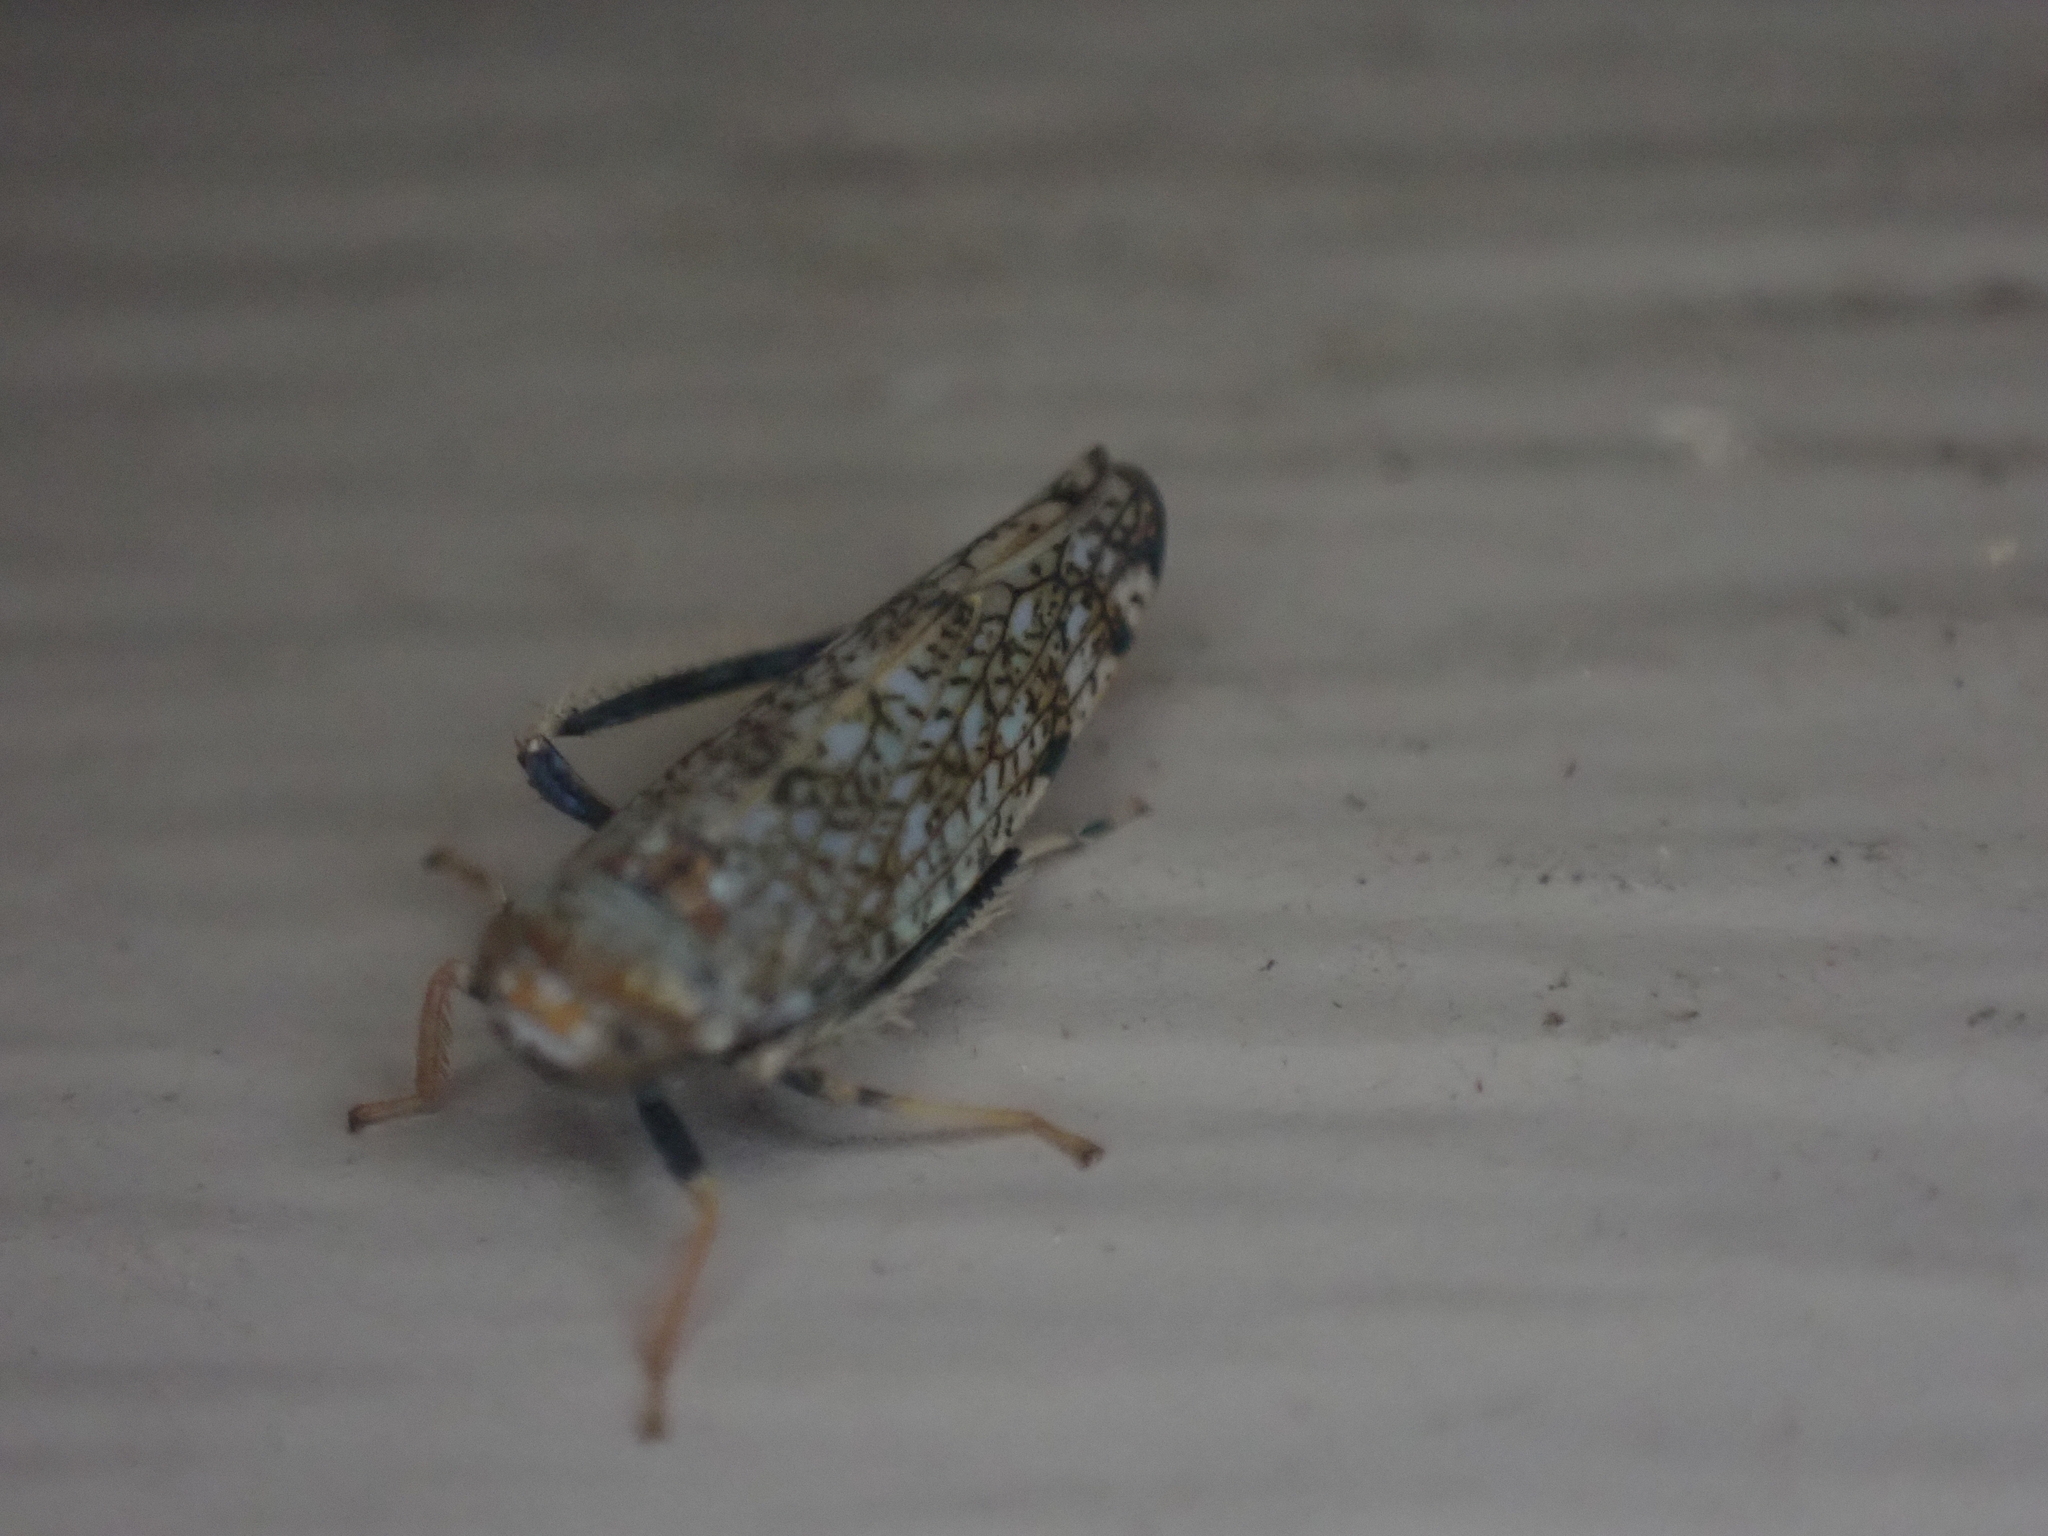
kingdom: Animalia
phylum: Arthropoda
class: Insecta
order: Hemiptera
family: Cicadellidae
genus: Orientus
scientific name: Orientus ishidae
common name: Japanese leafhopper
